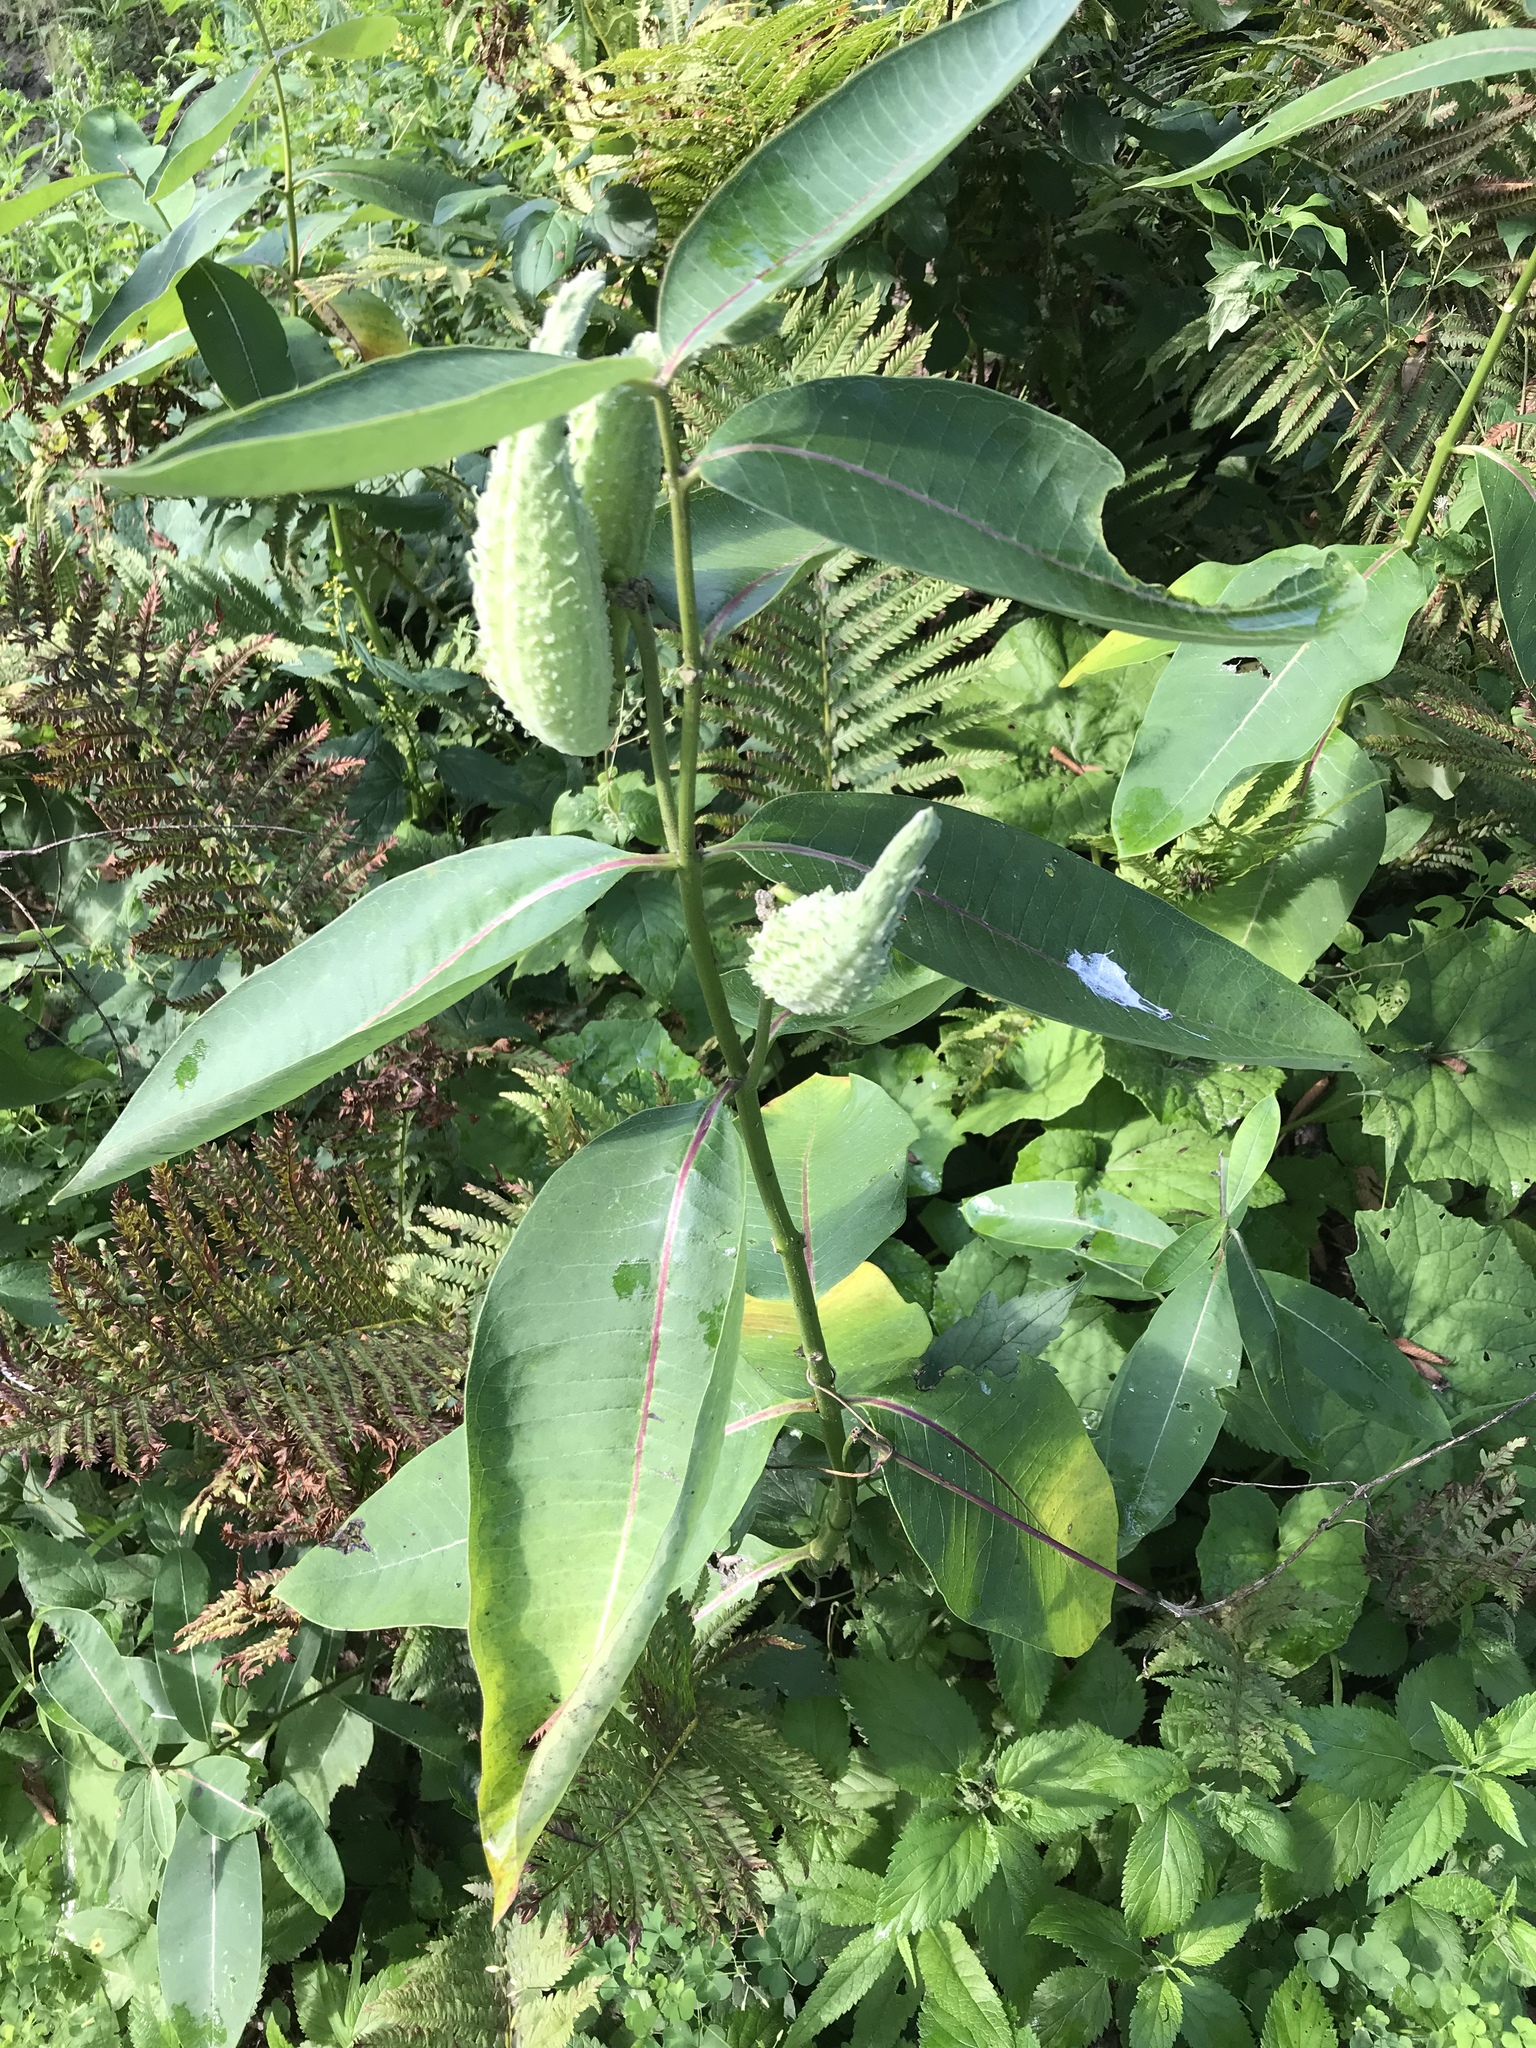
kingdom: Plantae
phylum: Tracheophyta
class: Magnoliopsida
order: Gentianales
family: Apocynaceae
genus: Asclepias
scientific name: Asclepias syriaca
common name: Common milkweed
